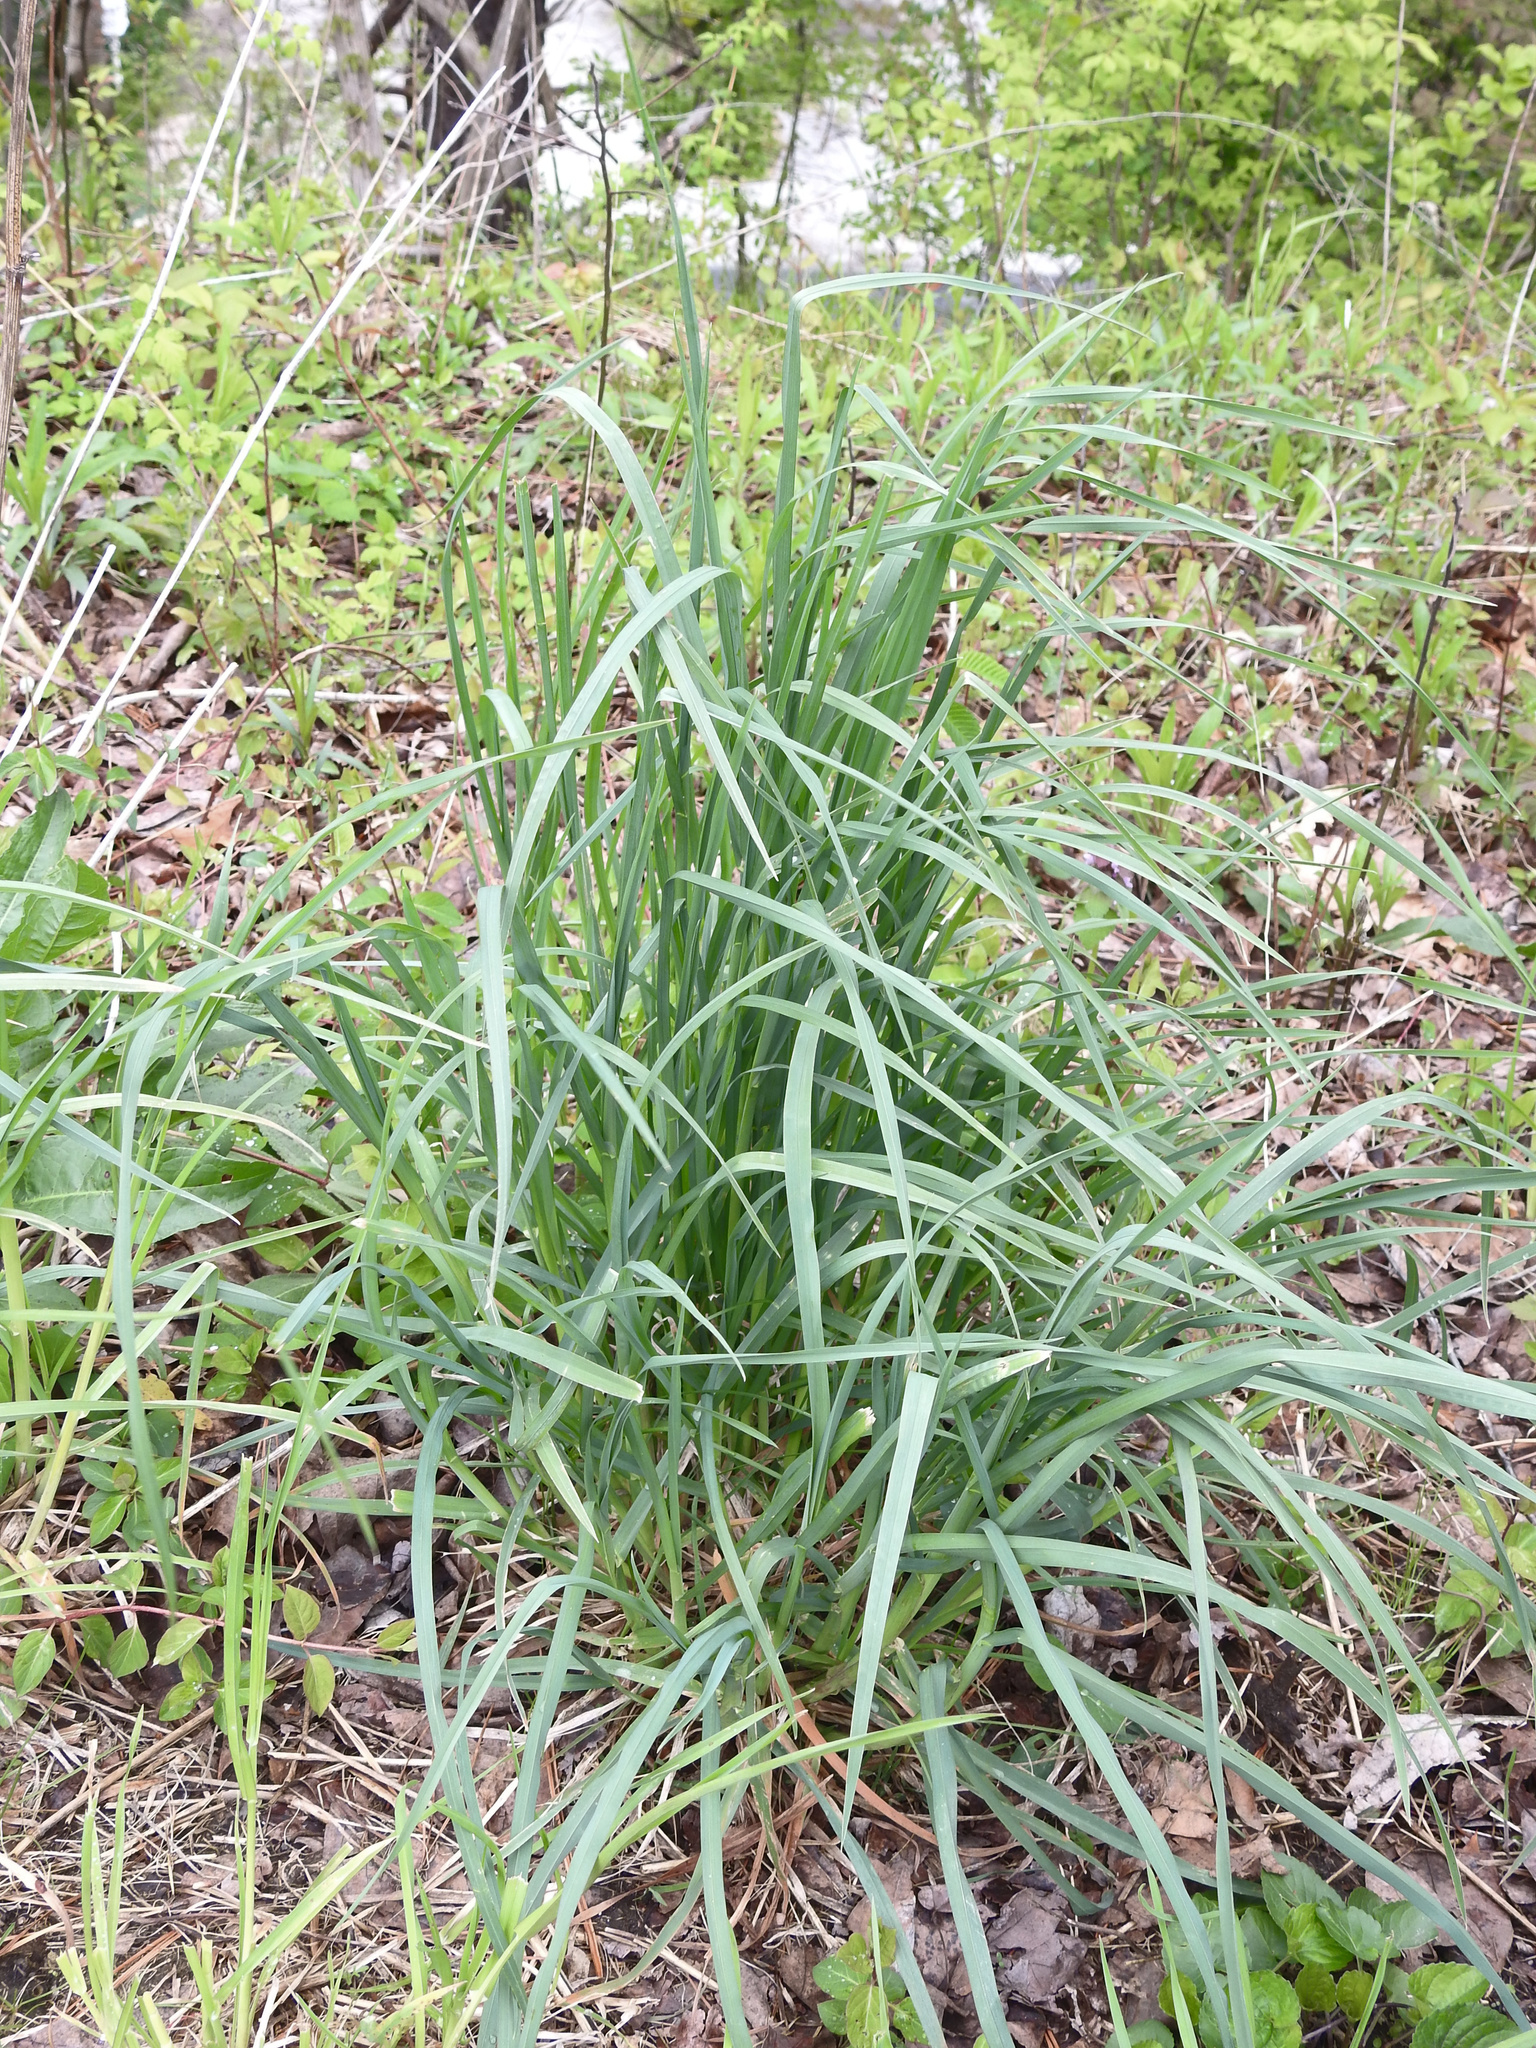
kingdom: Plantae
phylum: Tracheophyta
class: Liliopsida
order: Poales
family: Poaceae
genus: Dactylis
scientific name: Dactylis glomerata
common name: Orchardgrass
